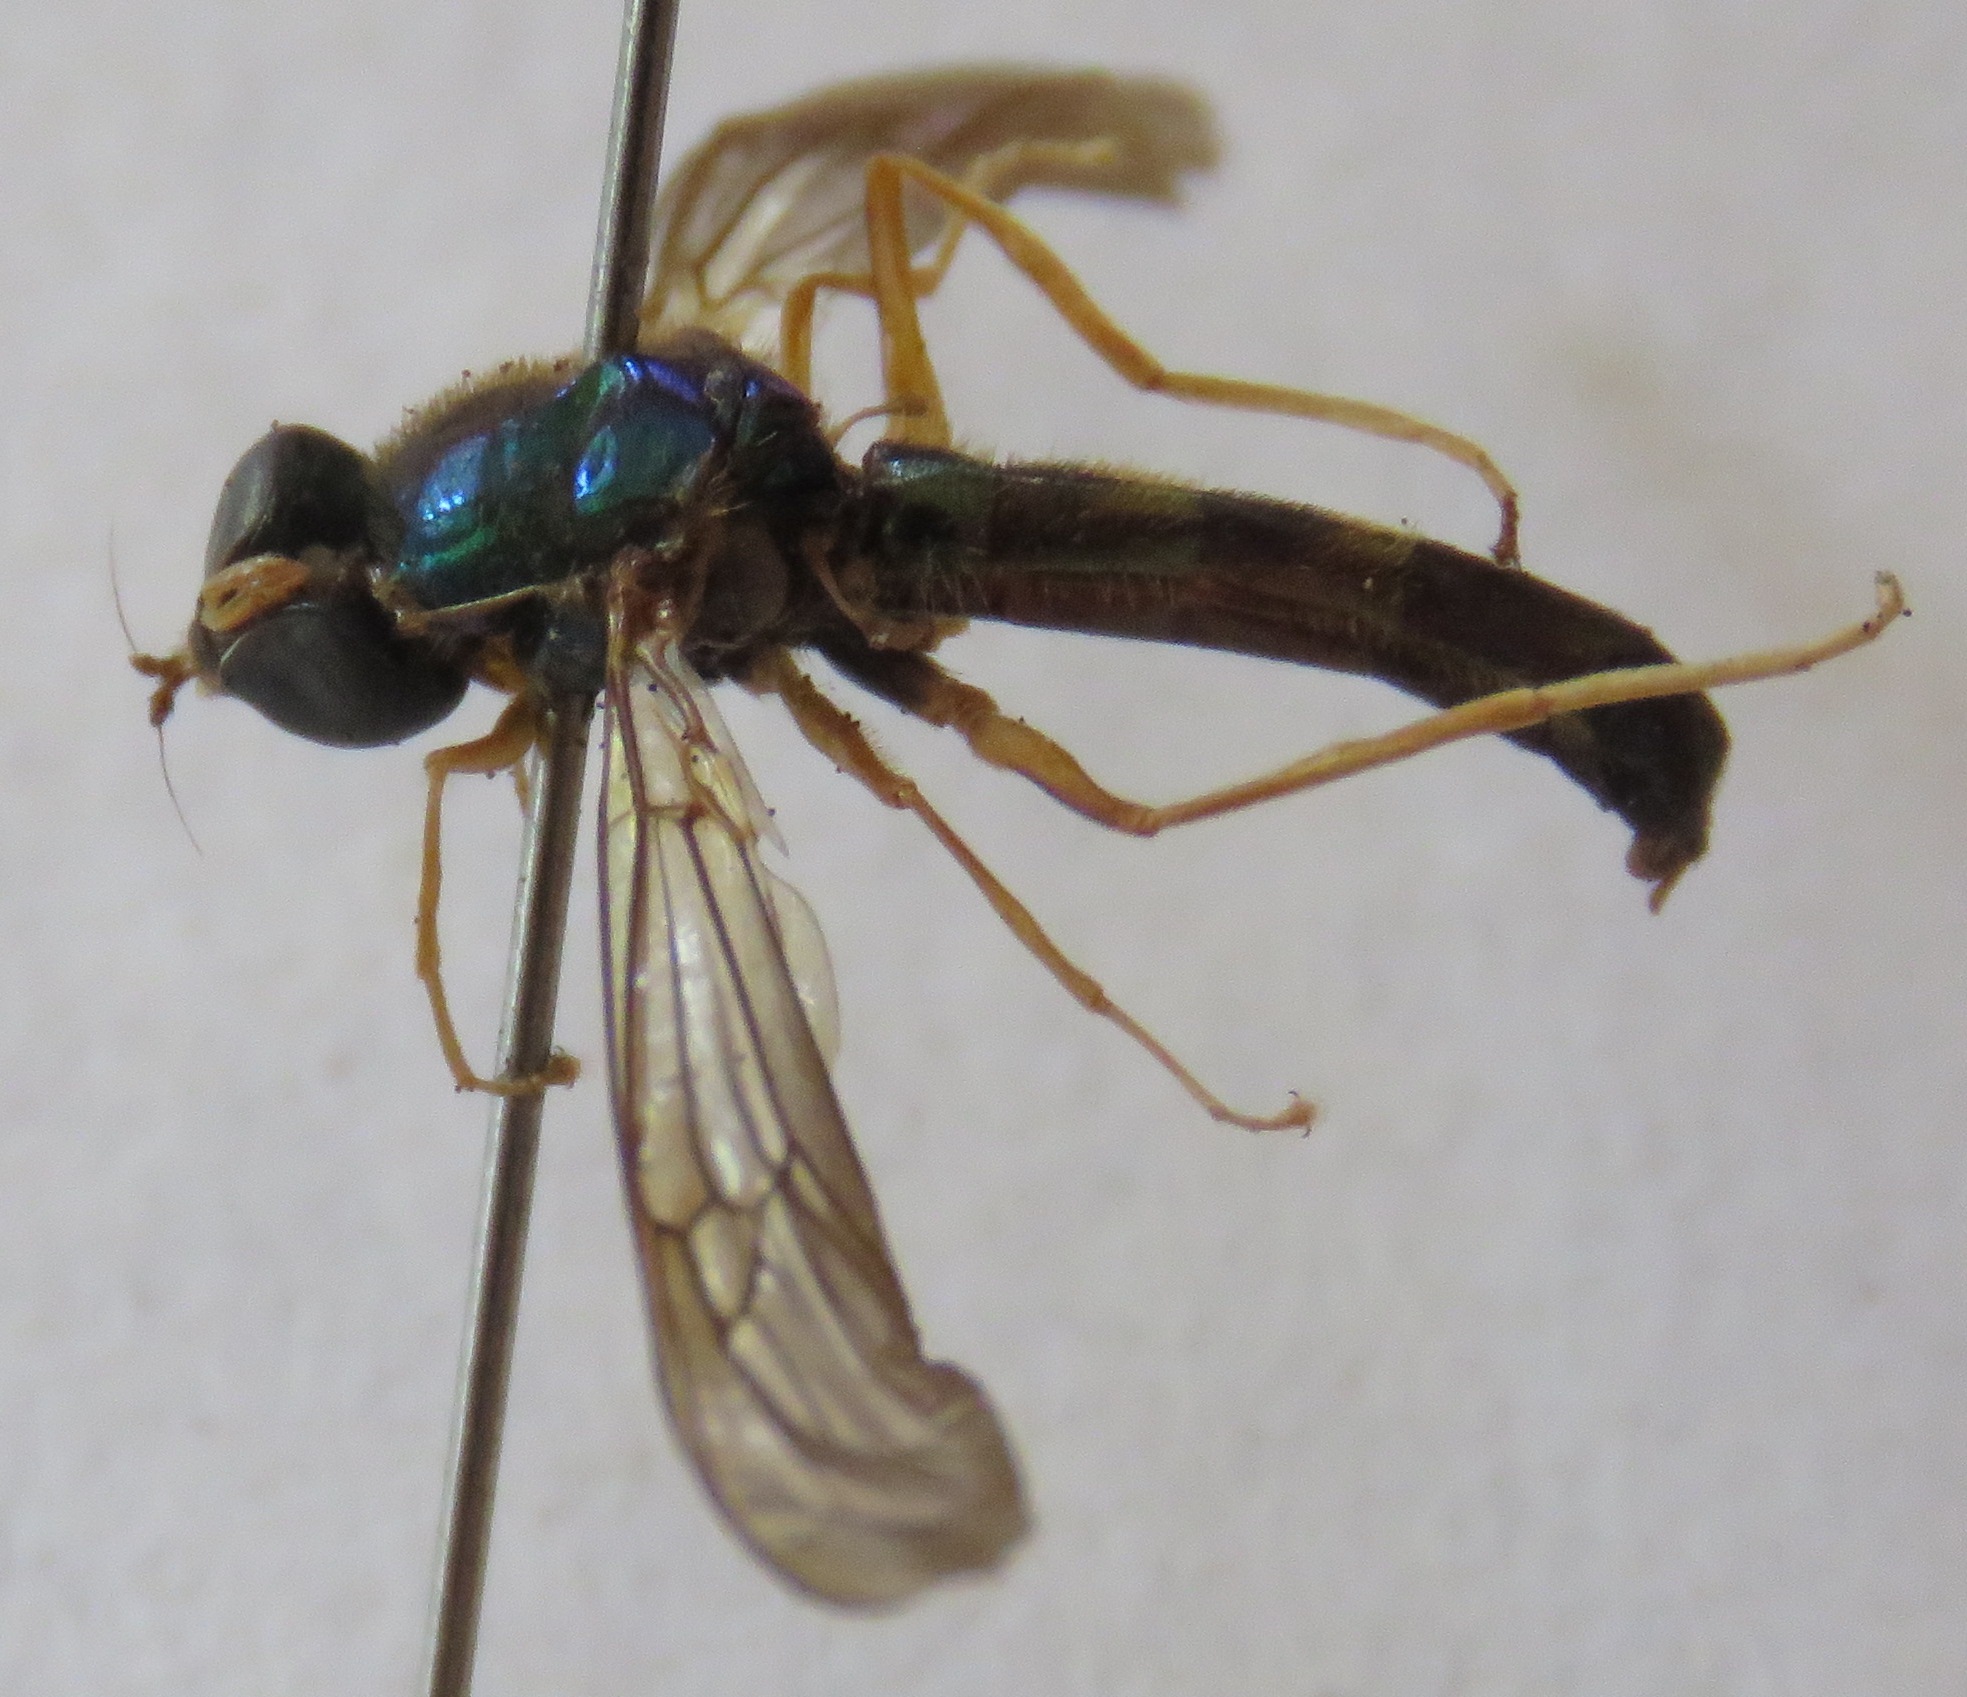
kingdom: Animalia
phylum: Arthropoda
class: Insecta
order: Diptera
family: Stratiomyidae
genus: Sargus
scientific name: Sargus speciosus
